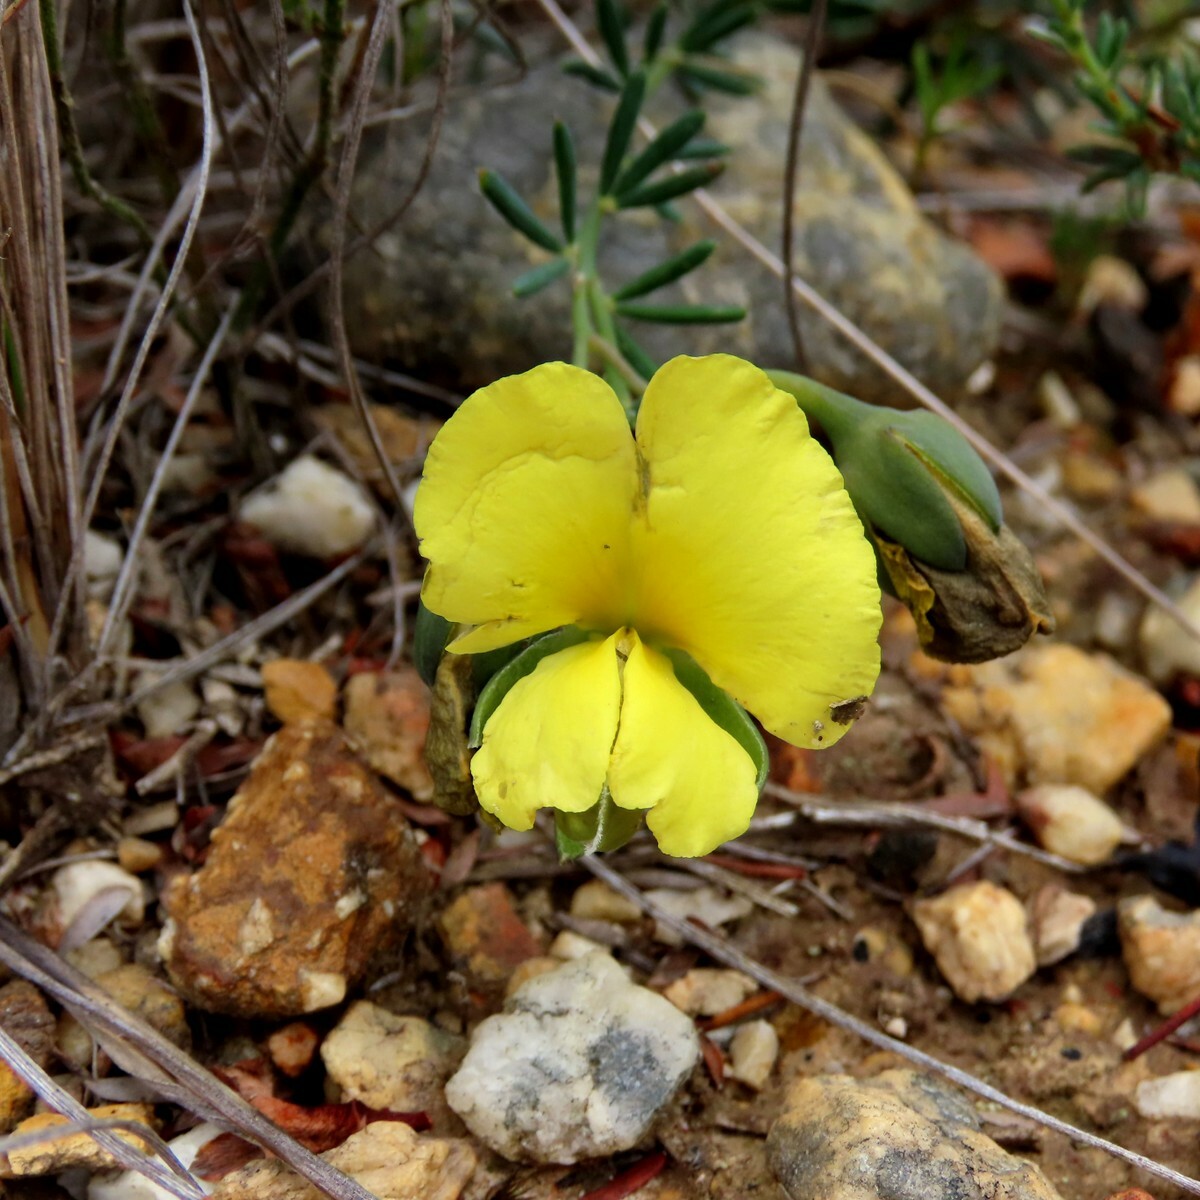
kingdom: Plantae
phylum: Tracheophyta
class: Magnoliopsida
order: Fabales
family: Fabaceae
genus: Gompholobium
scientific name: Gompholobium huegelii
